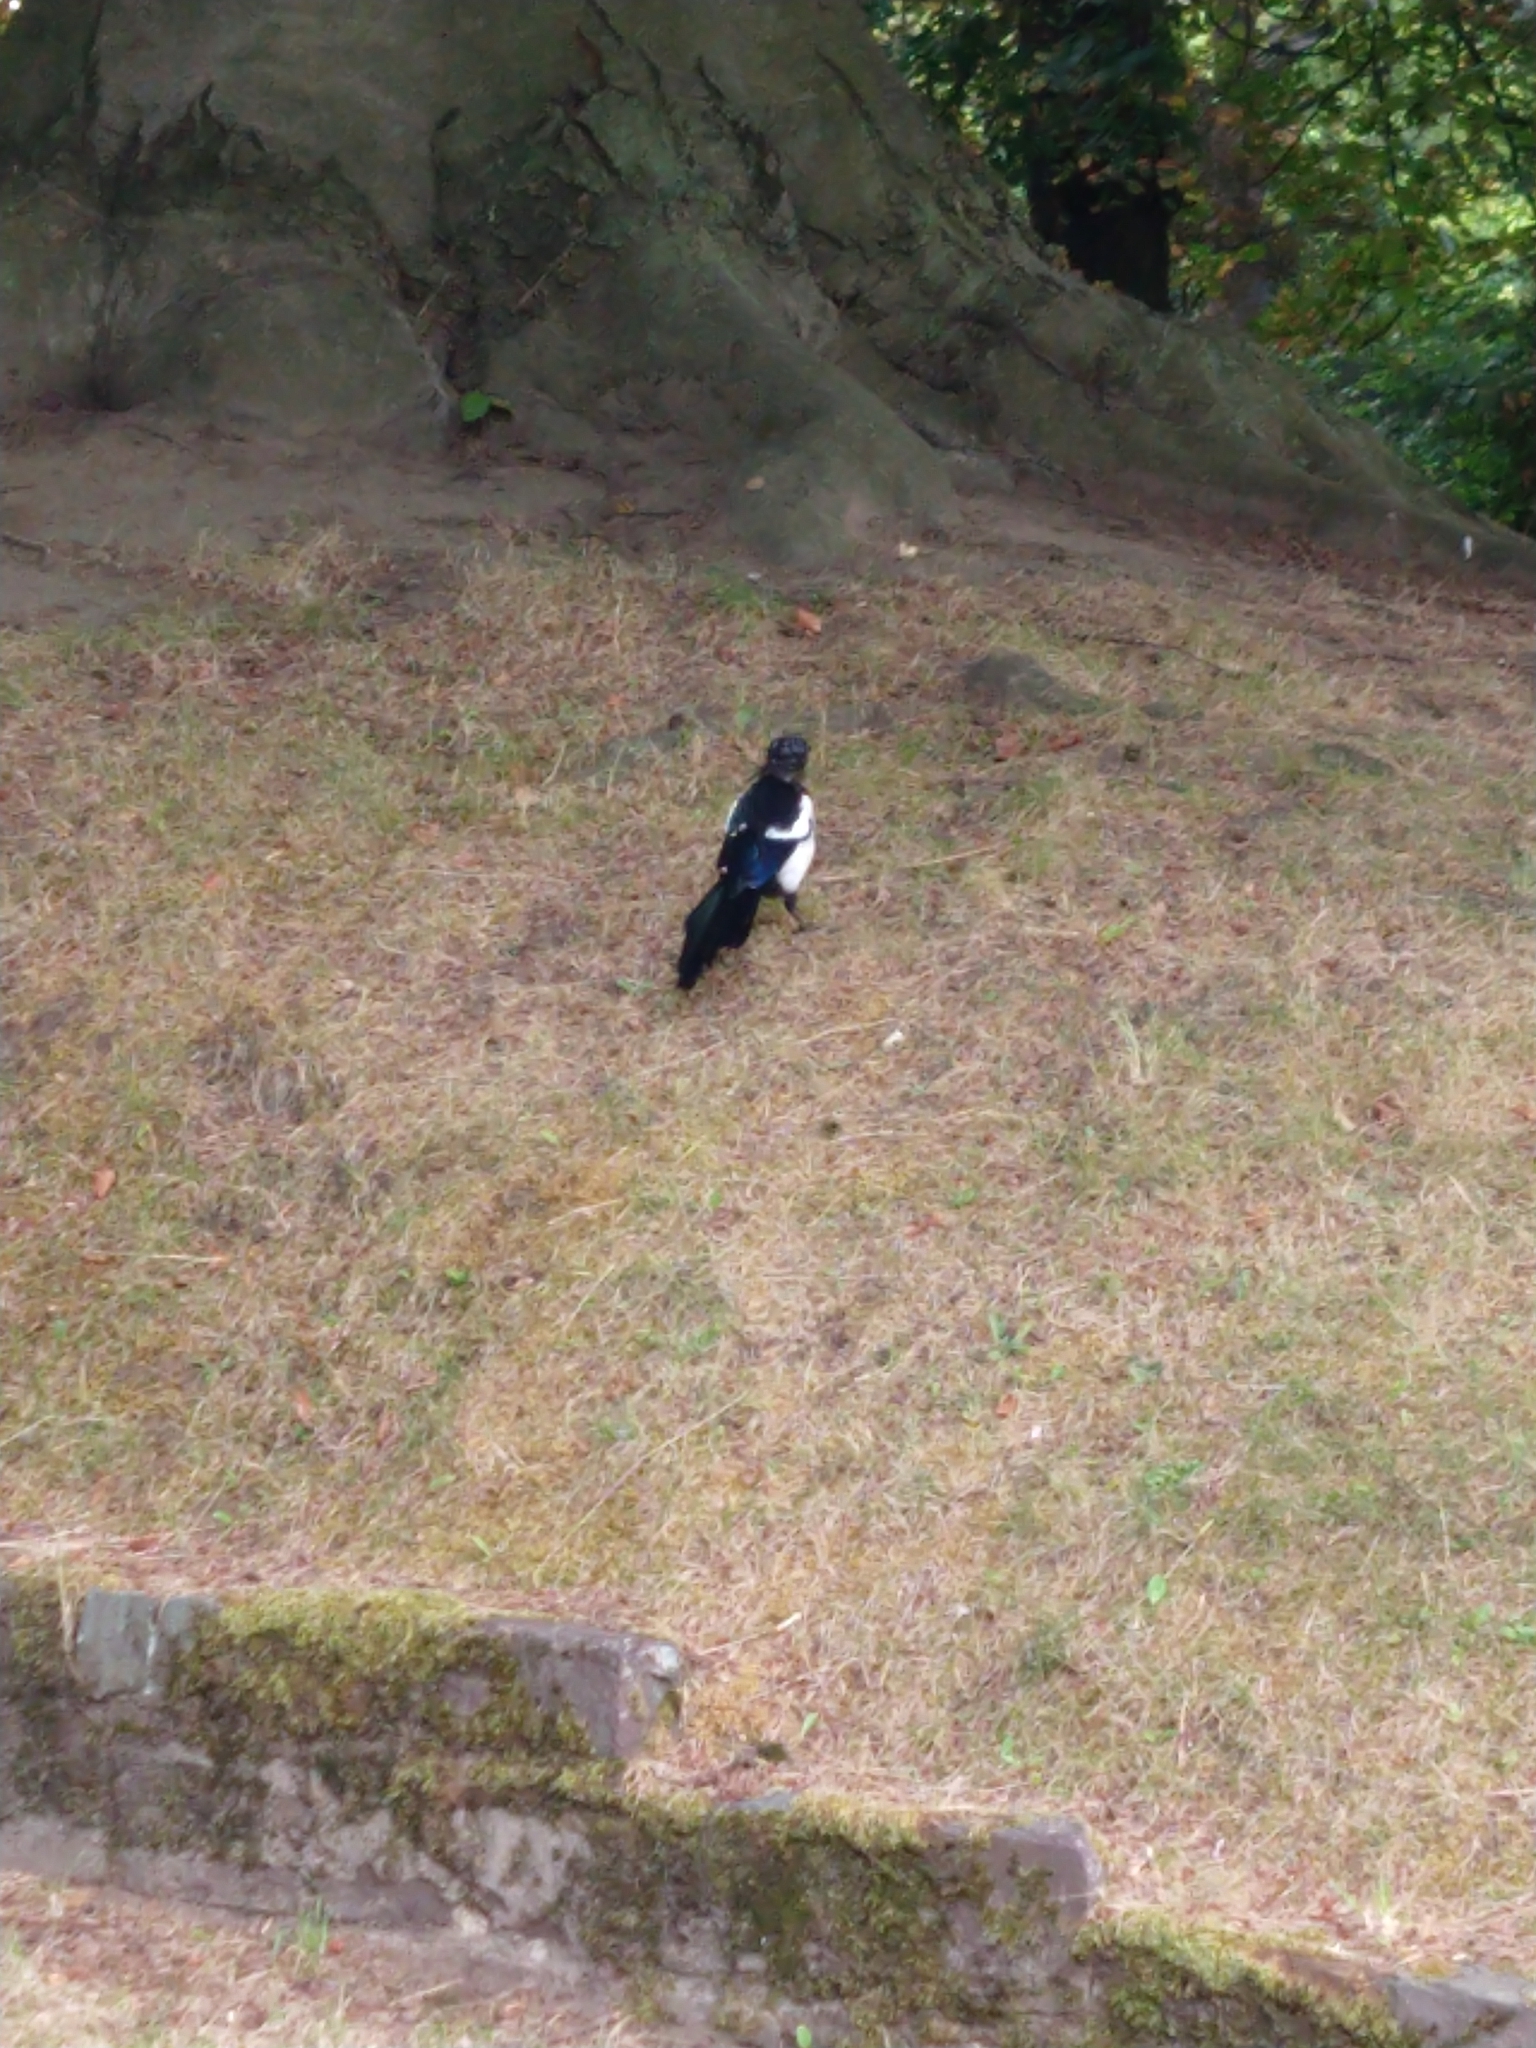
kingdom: Animalia
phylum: Chordata
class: Aves
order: Passeriformes
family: Corvidae
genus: Pica
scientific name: Pica pica
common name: Eurasian magpie
